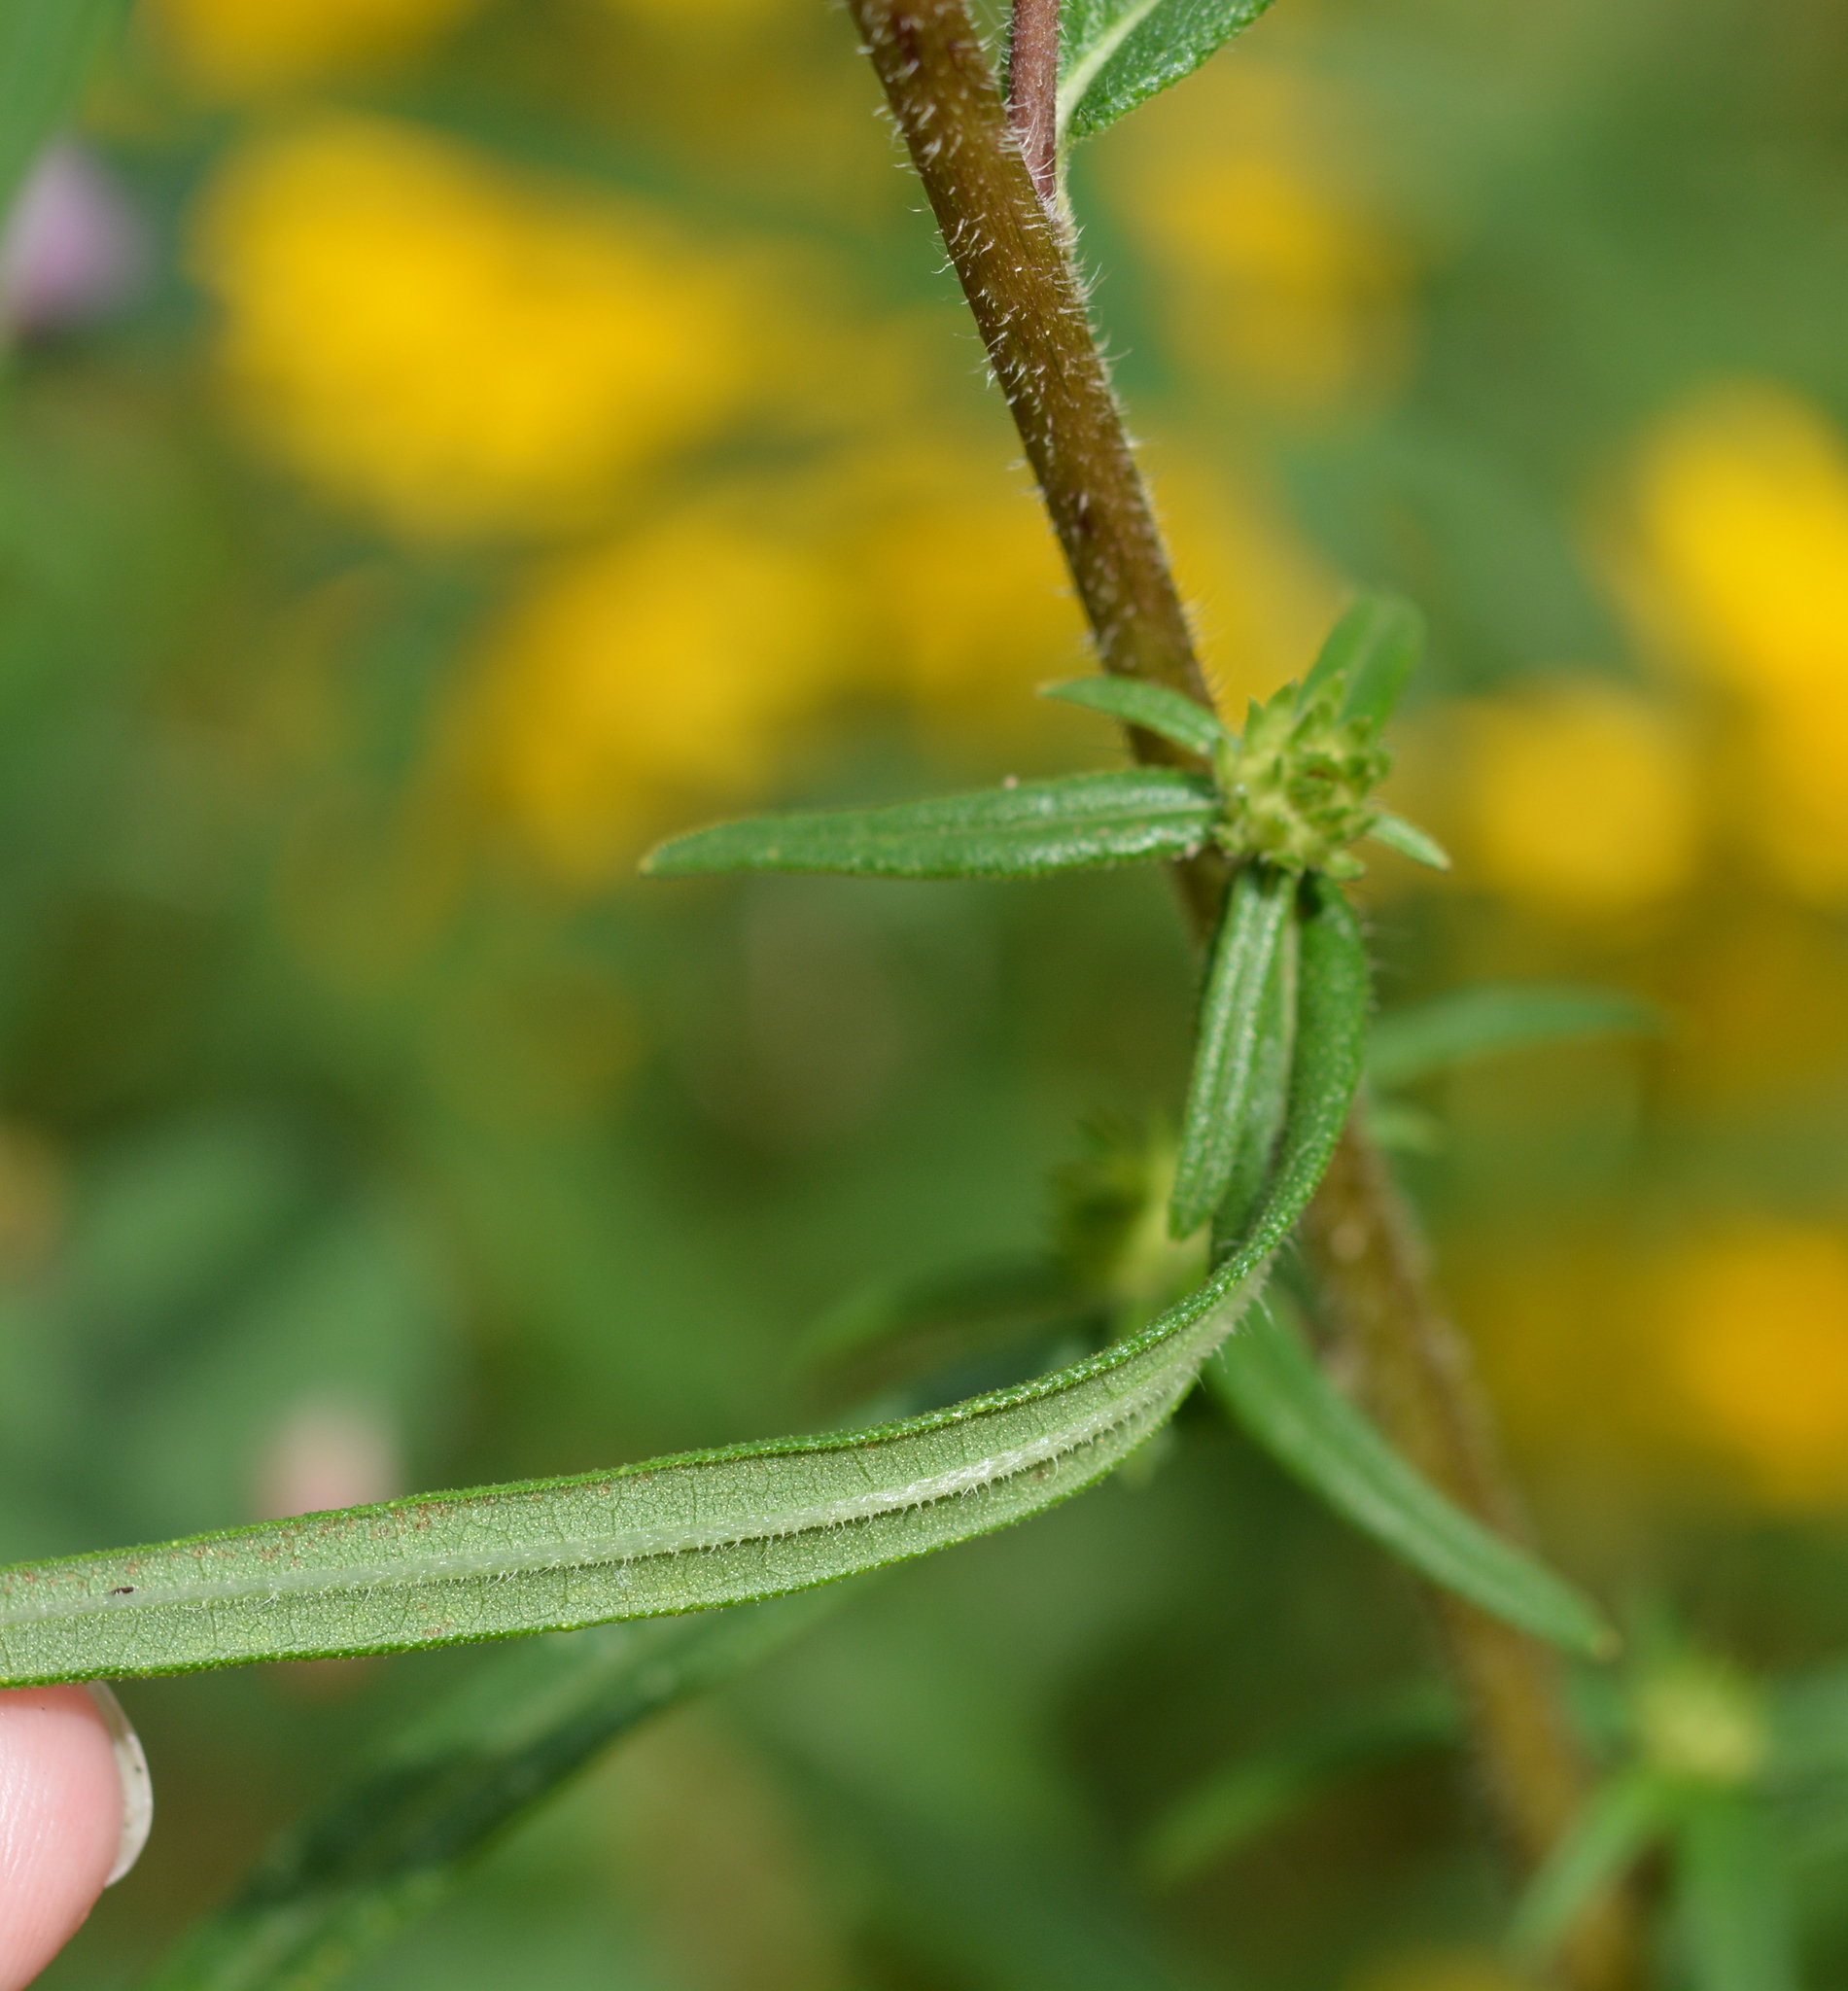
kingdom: Plantae
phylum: Tracheophyta
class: Magnoliopsida
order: Asterales
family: Asteraceae
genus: Helianthus
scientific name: Helianthus angustifolius
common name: Swamp sunflower
